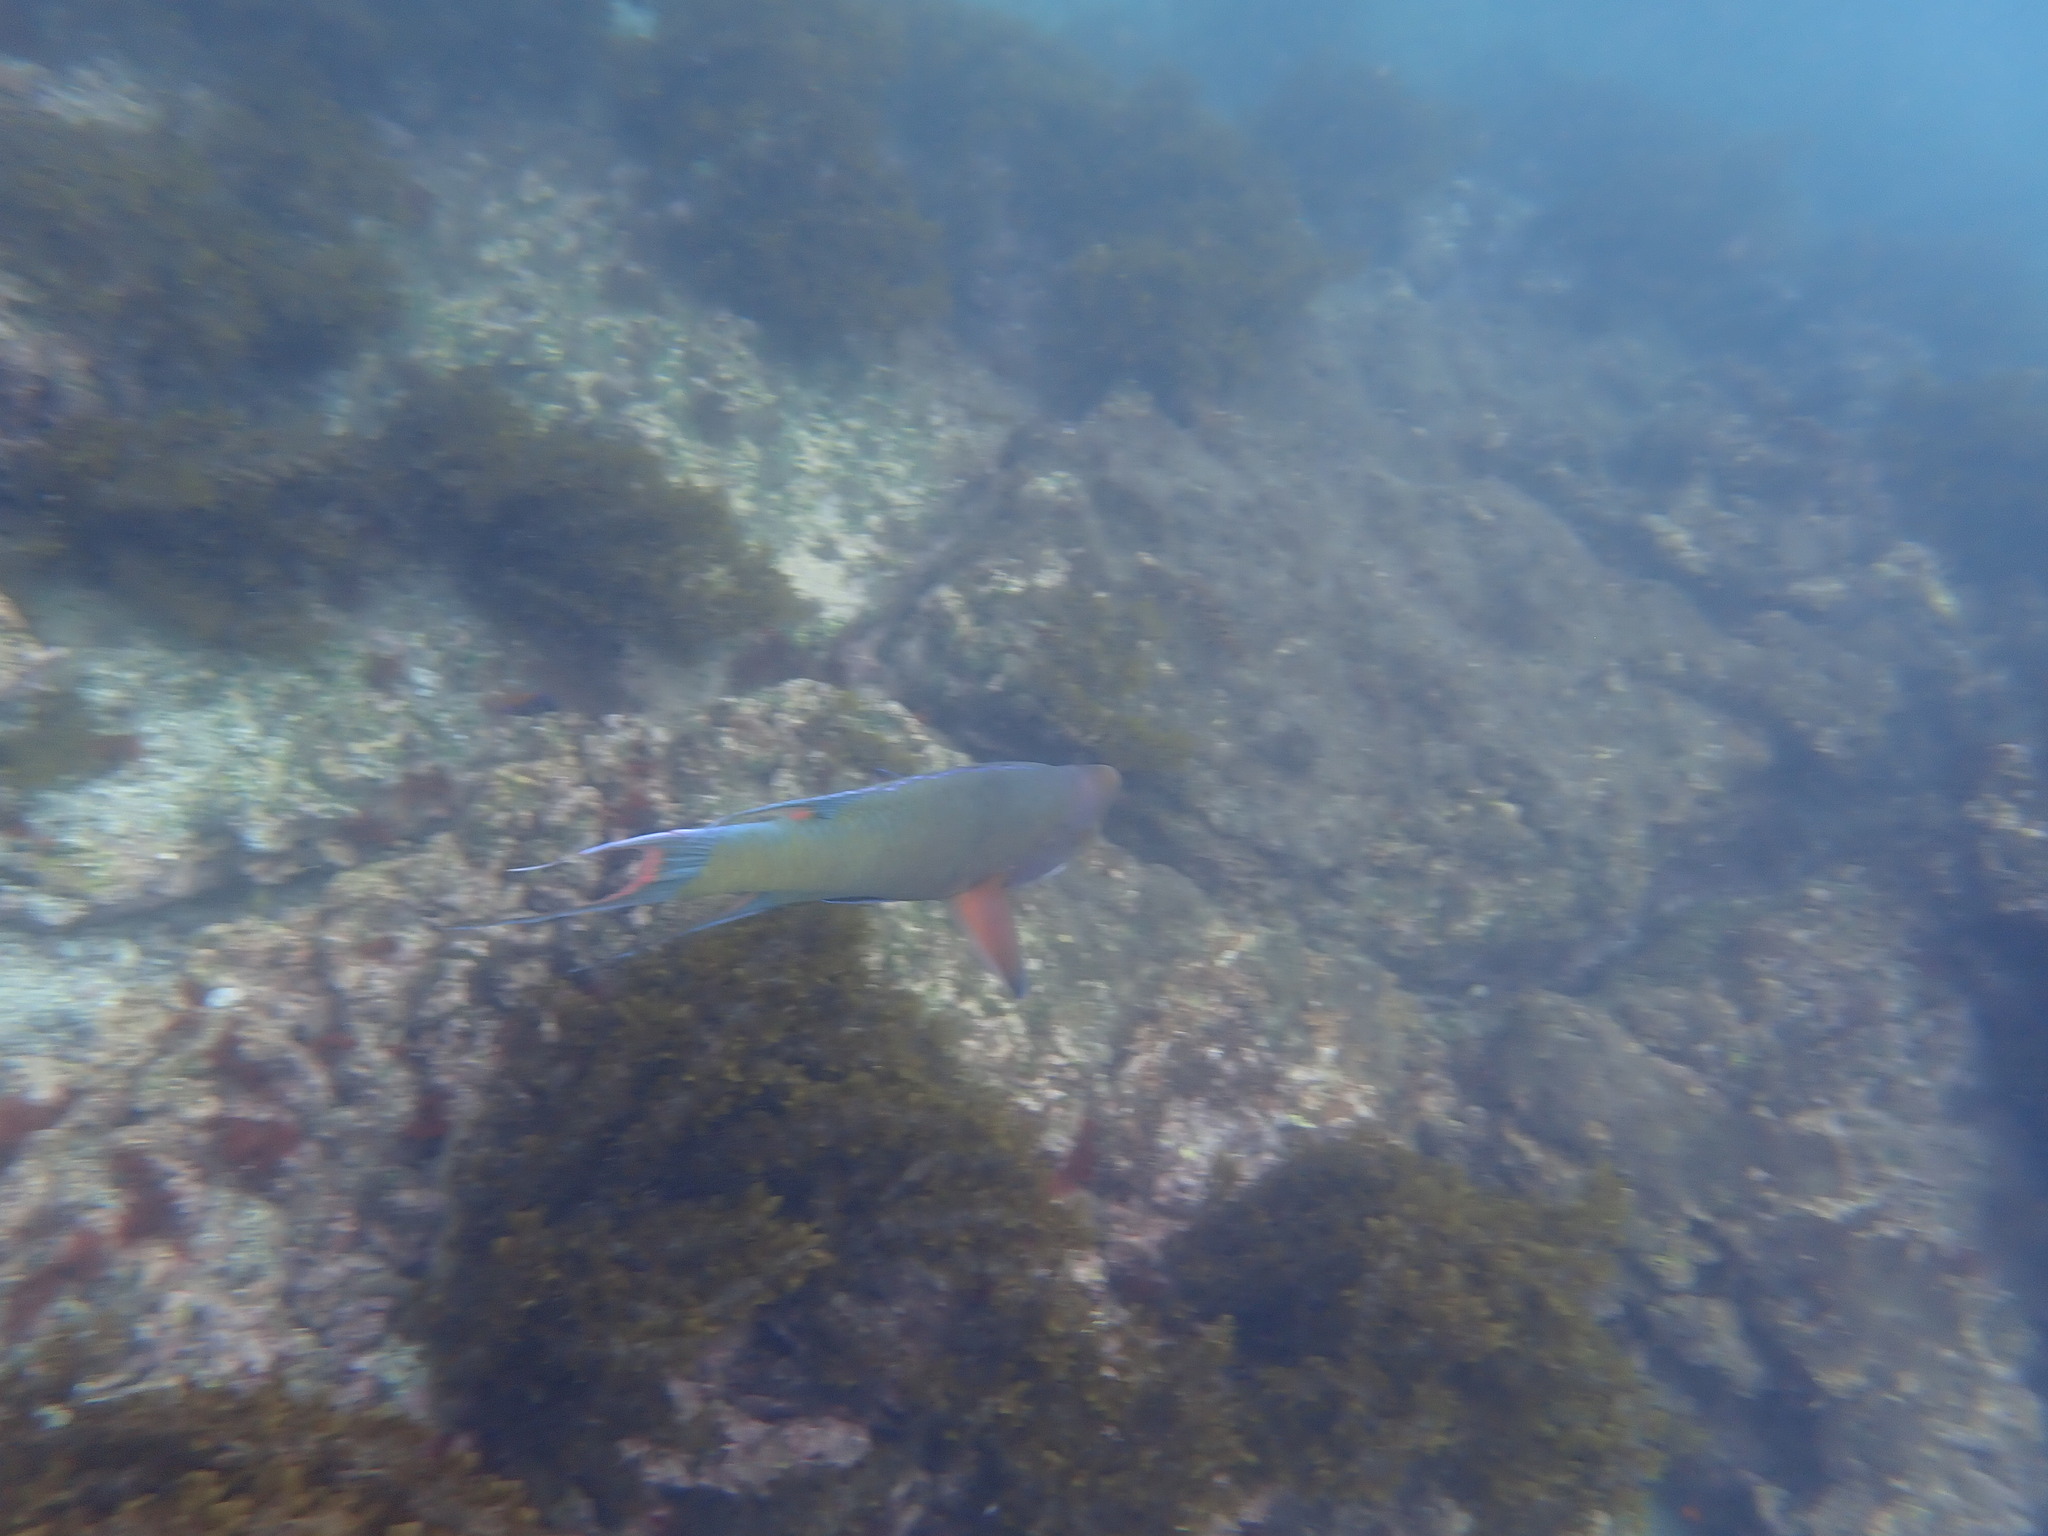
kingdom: Animalia
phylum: Chordata
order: Perciformes
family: Labridae
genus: Bodianus
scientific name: Bodianus diplotaenia
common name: Mexican hogfish
